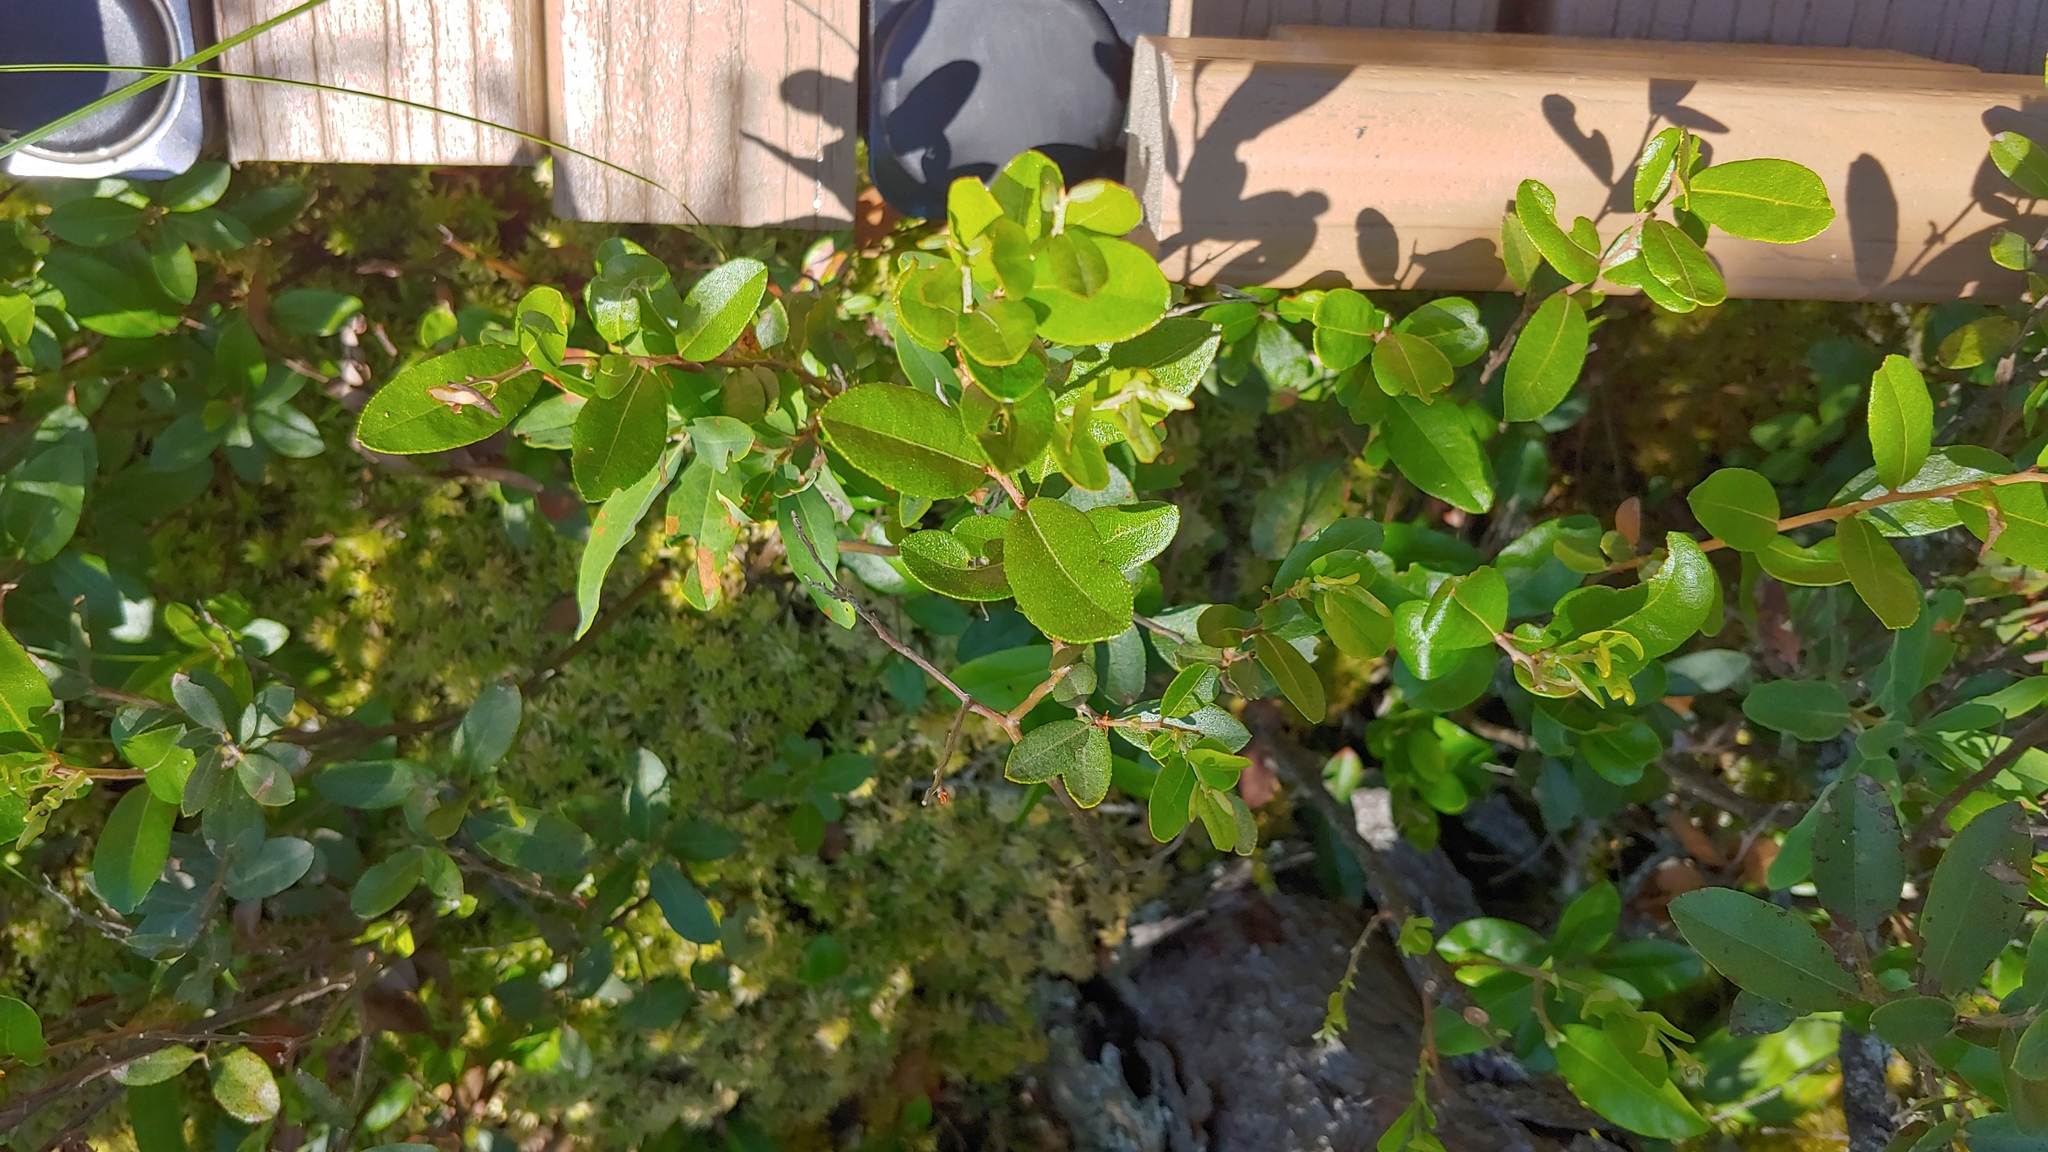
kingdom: Plantae
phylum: Tracheophyta
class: Magnoliopsida
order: Ericales
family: Ericaceae
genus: Chamaedaphne
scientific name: Chamaedaphne calyculata
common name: Leatherleaf
